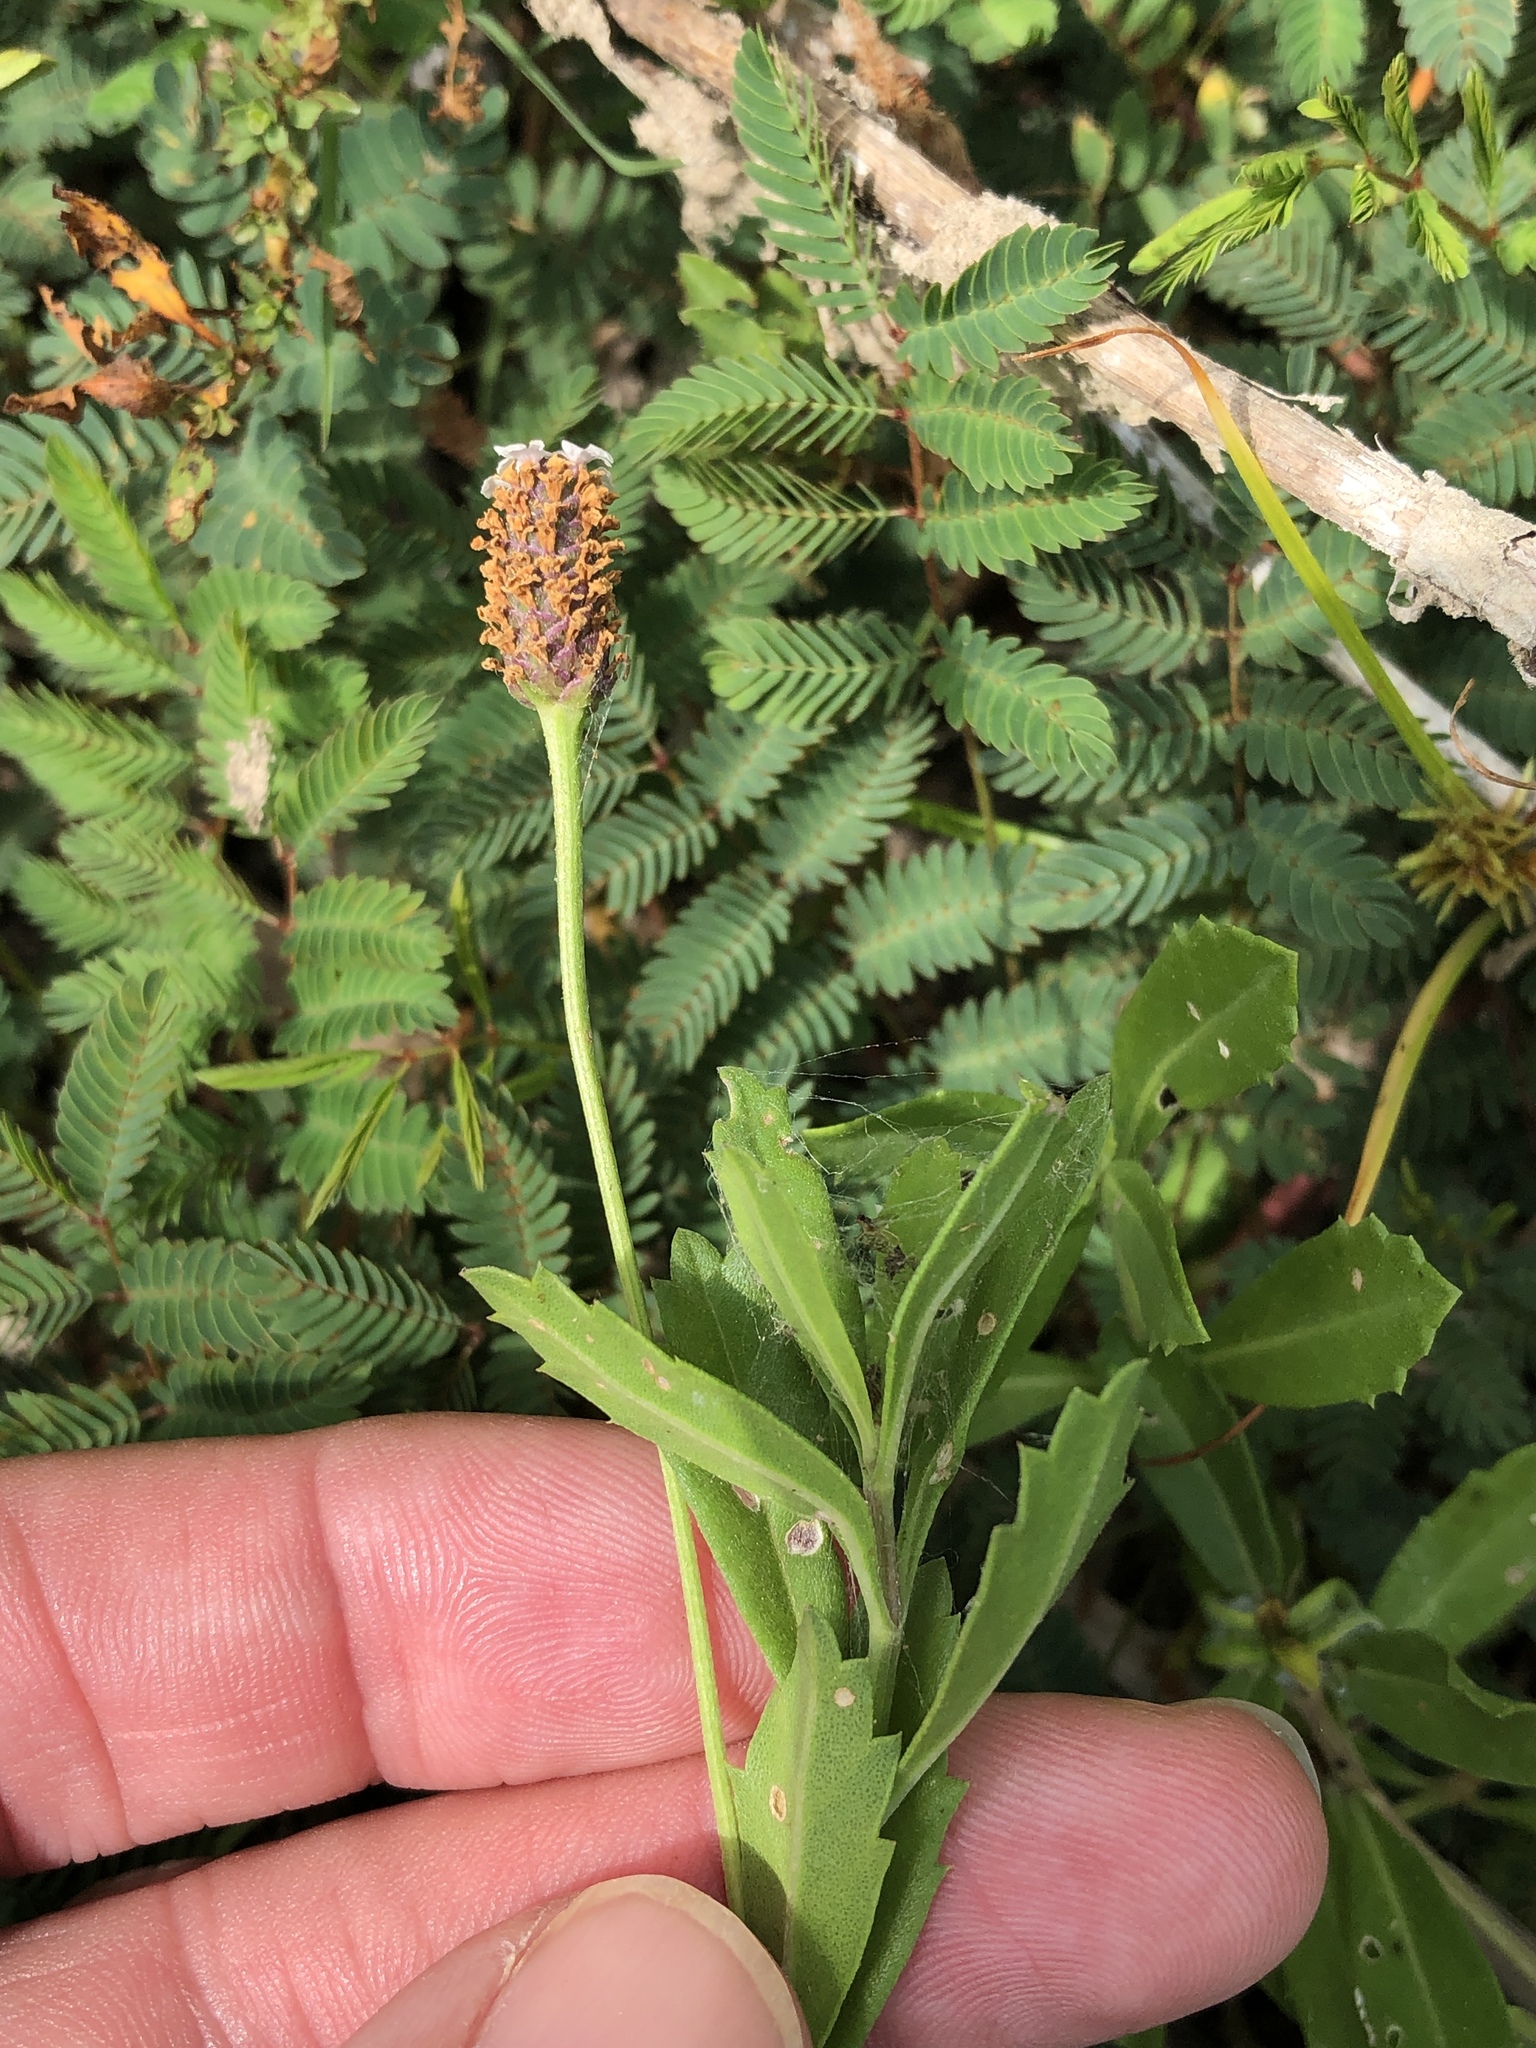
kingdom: Plantae
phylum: Tracheophyta
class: Magnoliopsida
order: Lamiales
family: Verbenaceae
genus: Phyla
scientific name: Phyla nodiflora
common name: Frogfruit
